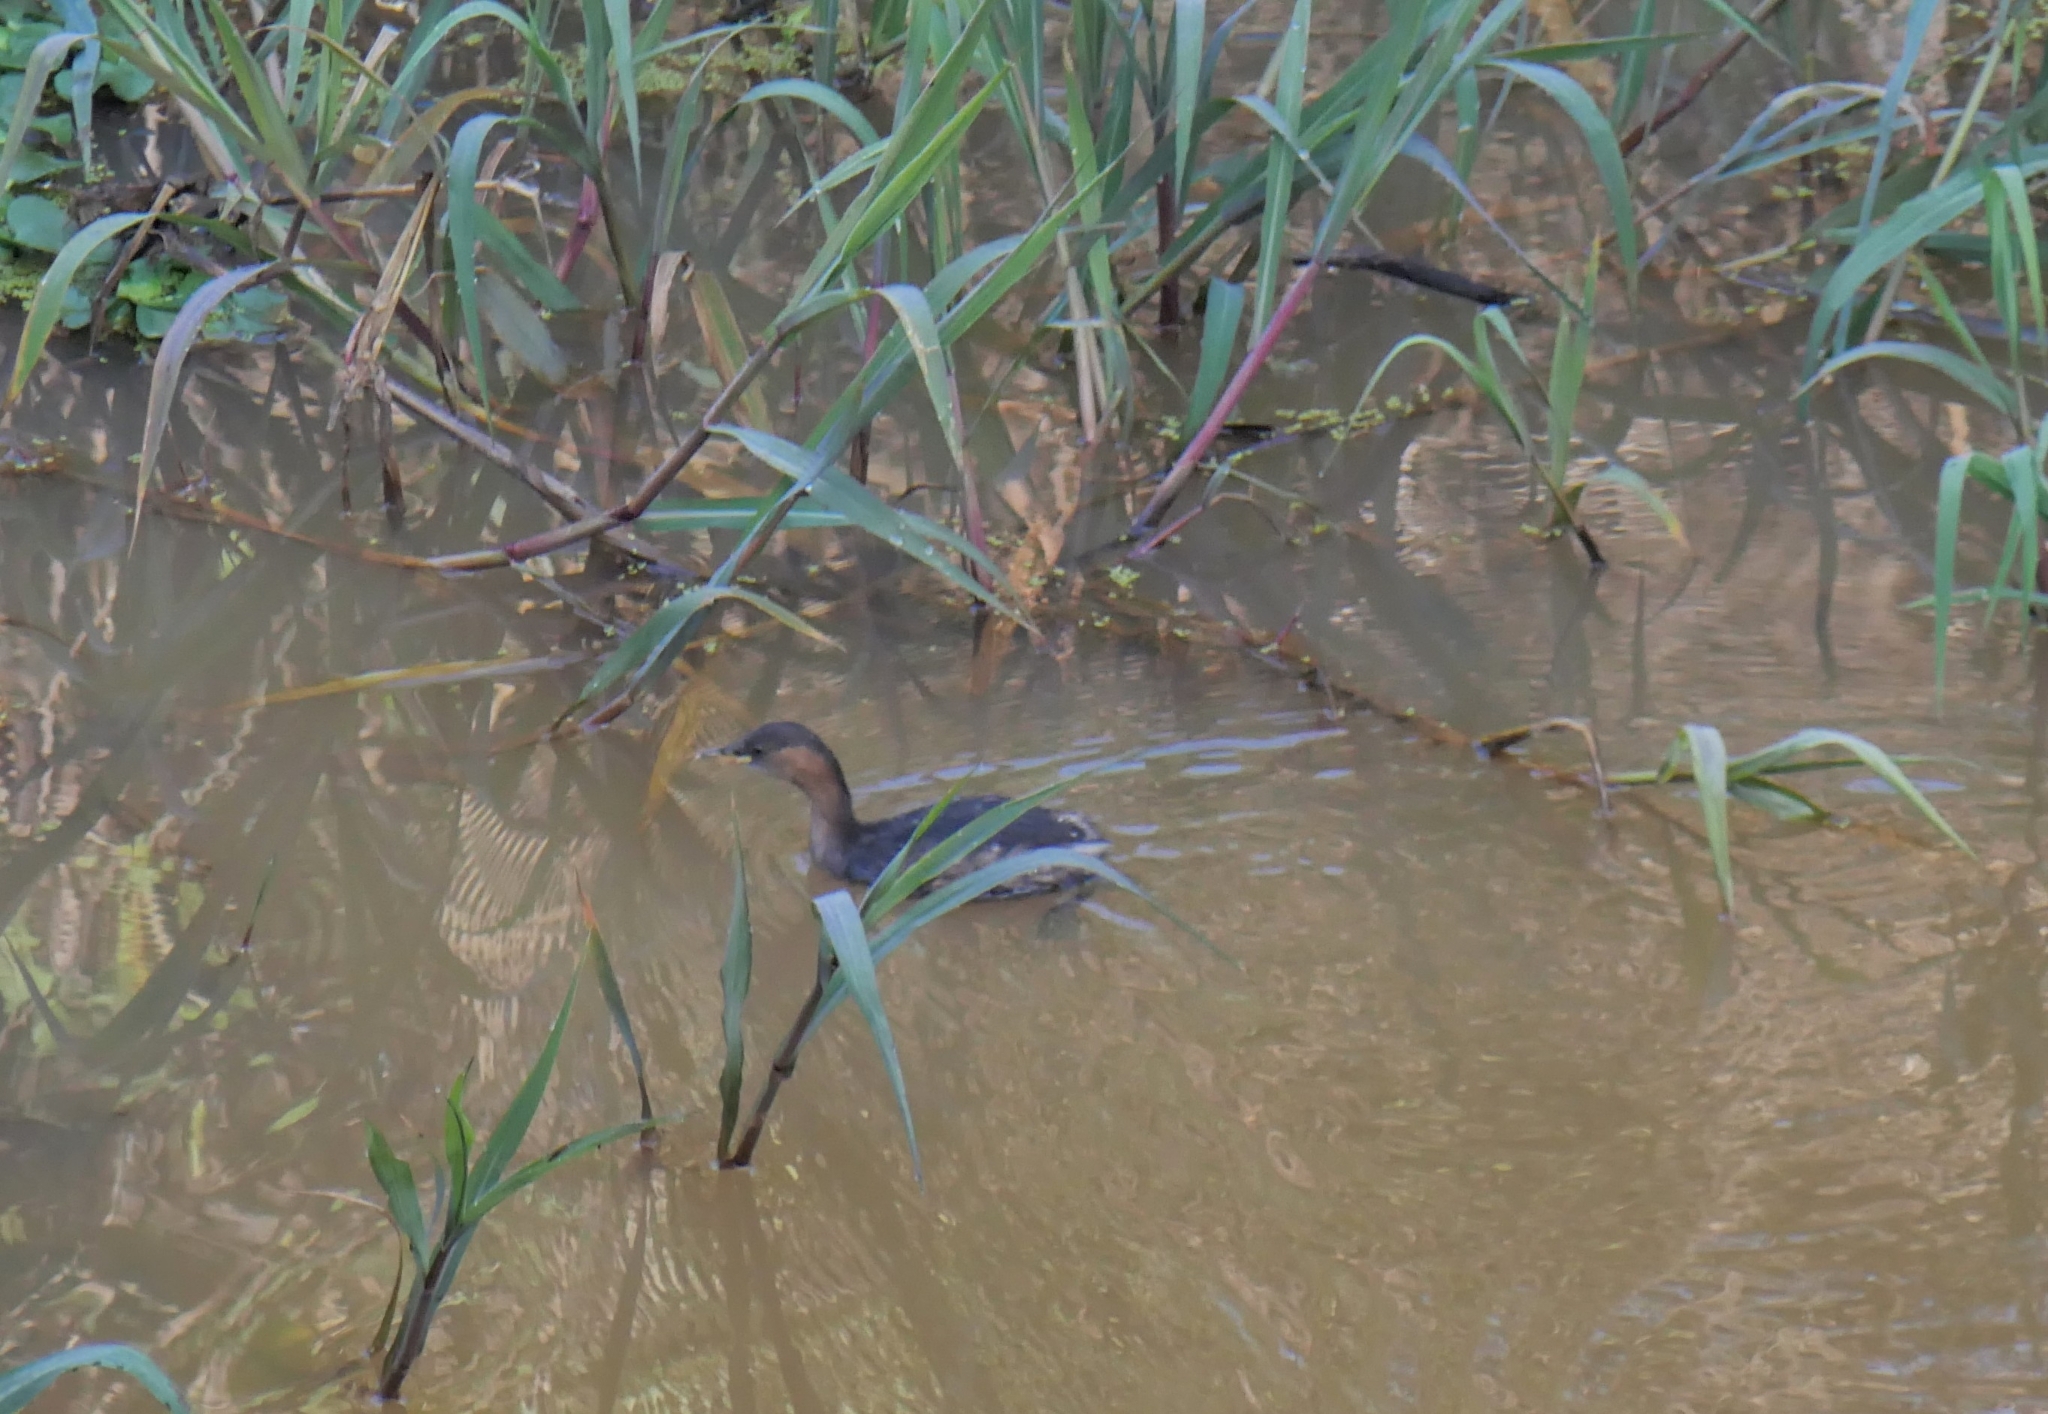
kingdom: Animalia
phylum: Chordata
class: Aves
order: Podicipediformes
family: Podicipedidae
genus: Tachybaptus
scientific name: Tachybaptus ruficollis
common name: Little grebe
